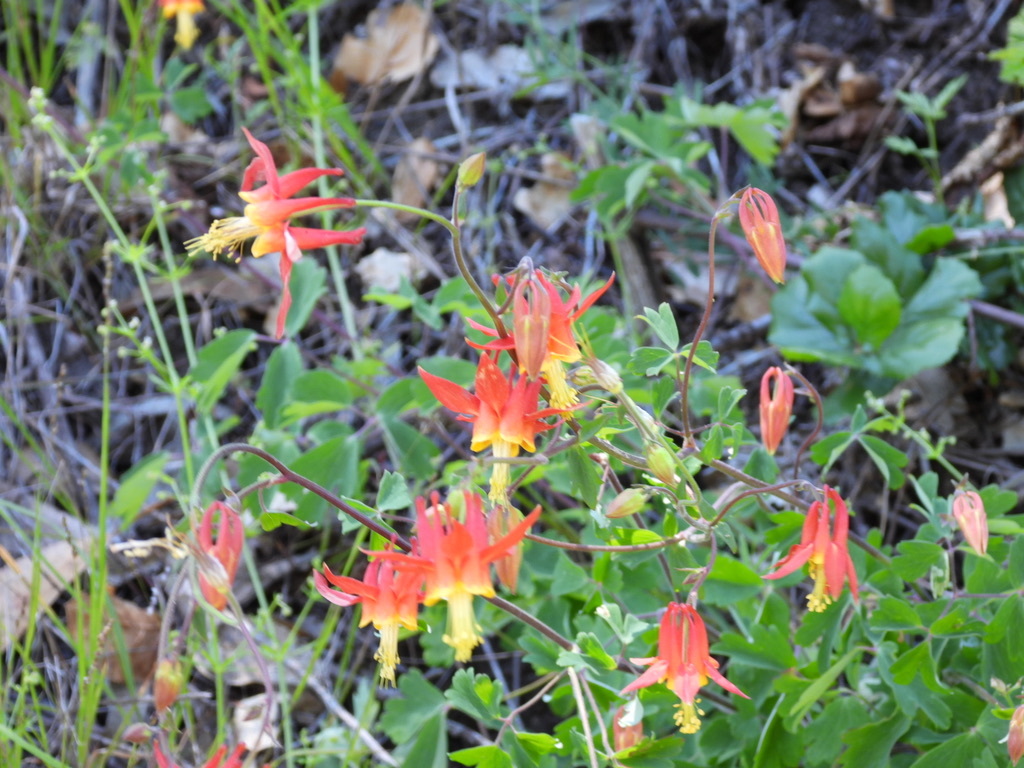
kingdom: Plantae
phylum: Tracheophyta
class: Magnoliopsida
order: Ranunculales
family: Ranunculaceae
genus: Aquilegia
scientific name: Aquilegia formosa
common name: Sitka columbine
